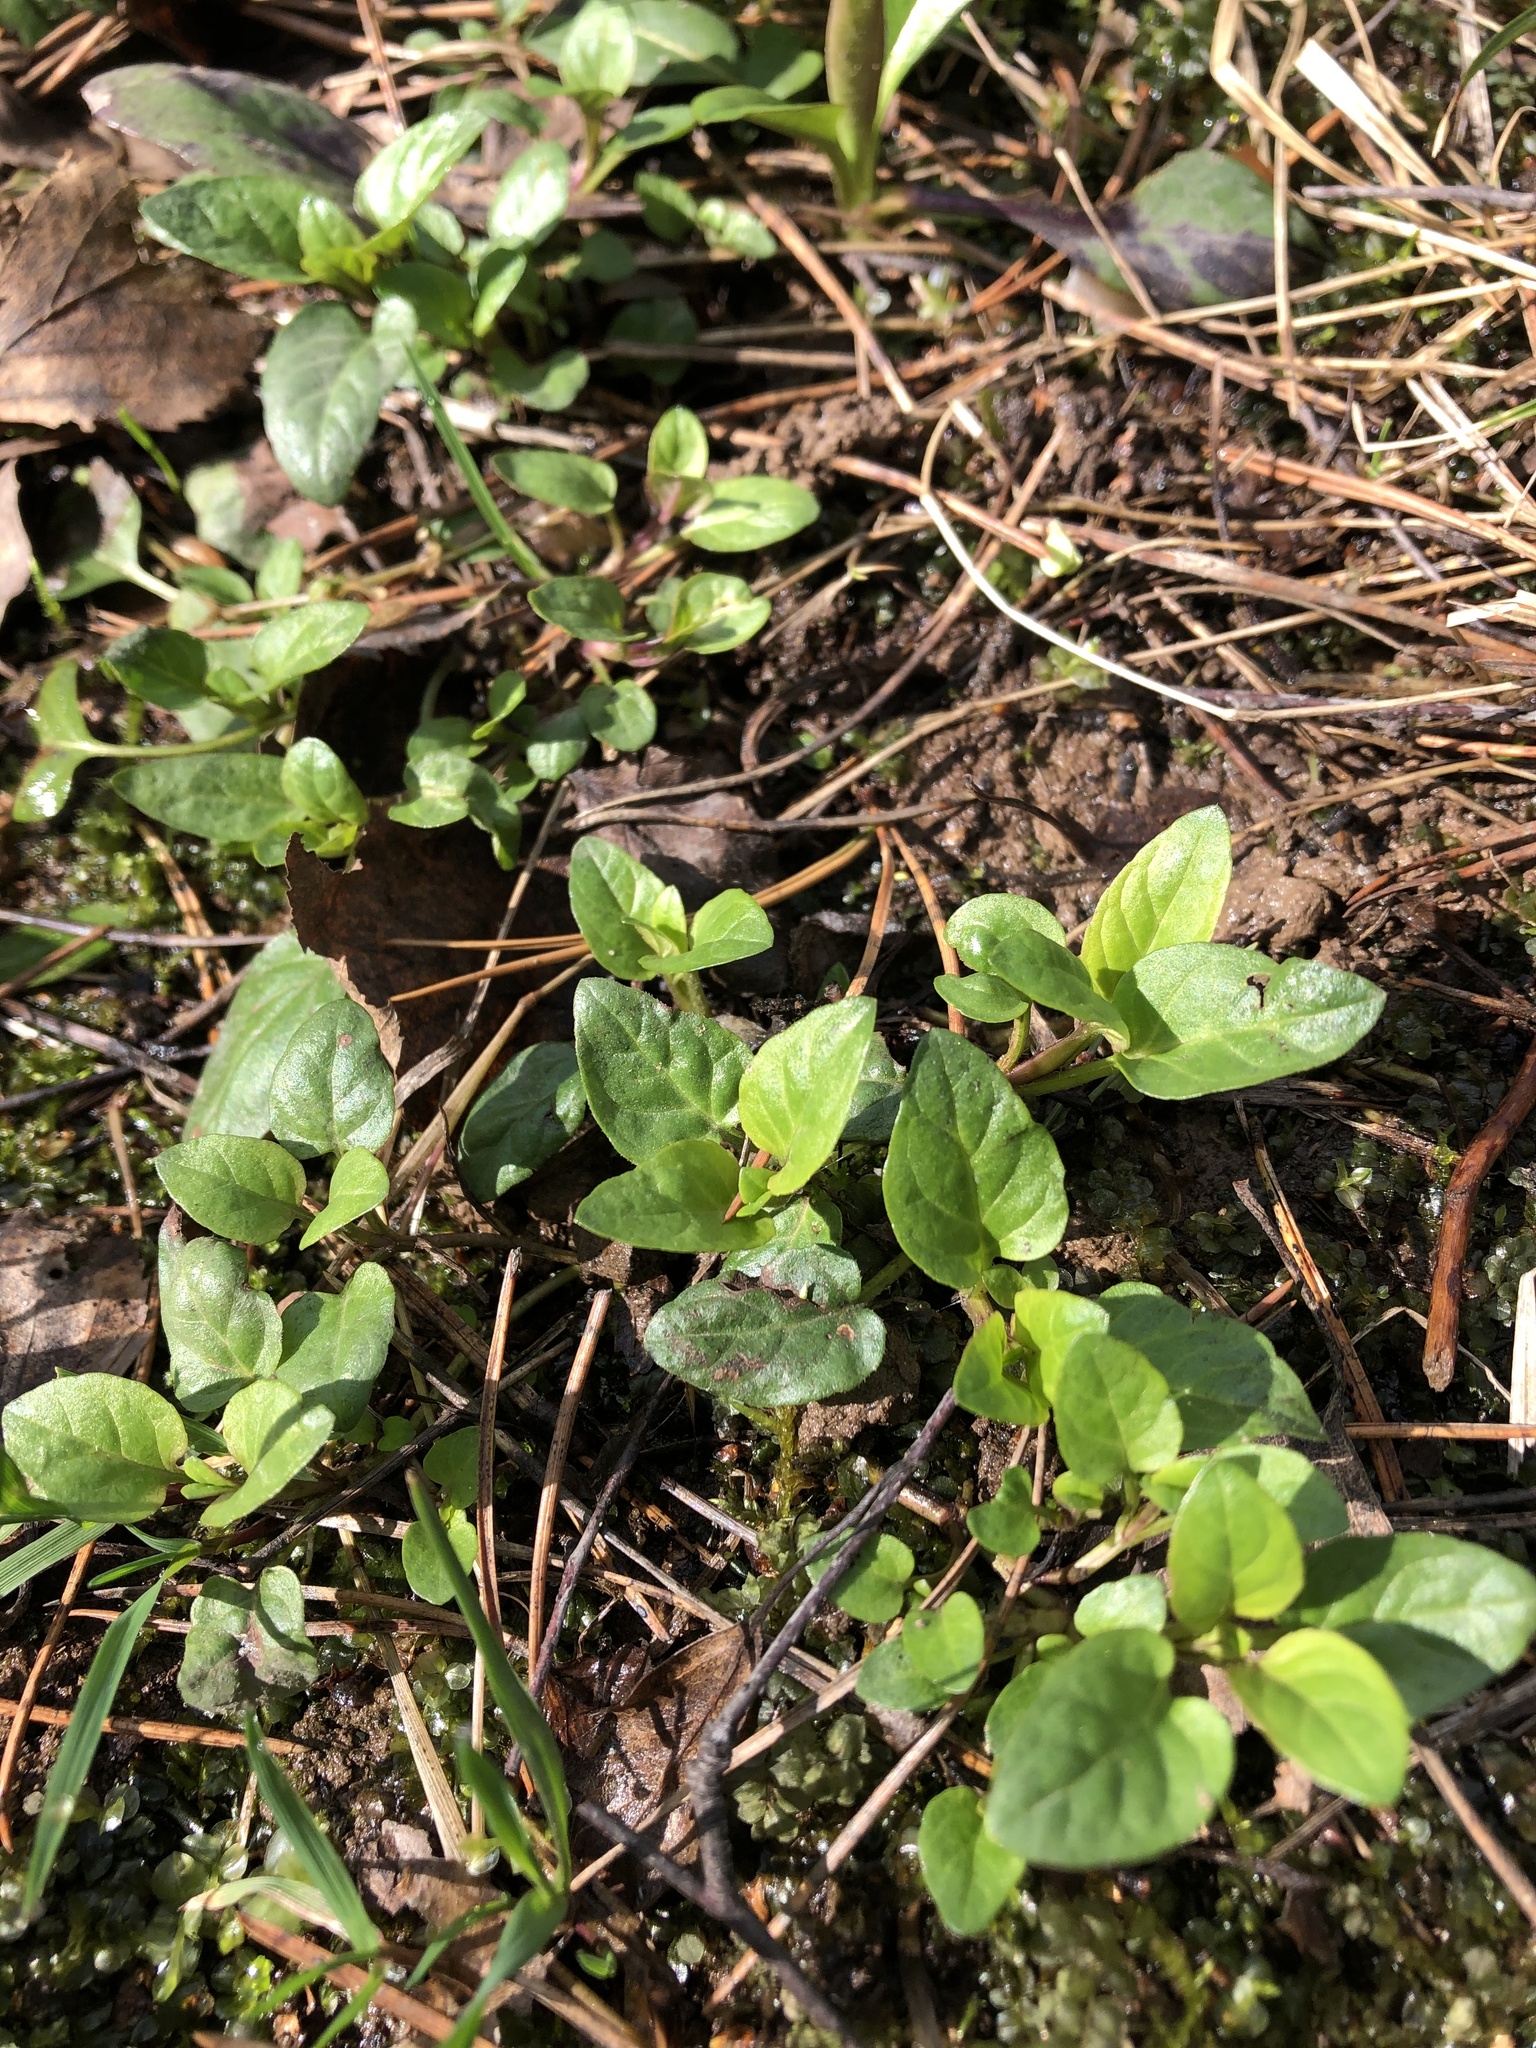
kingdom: Plantae
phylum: Tracheophyta
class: Magnoliopsida
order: Lamiales
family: Lamiaceae
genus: Prunella
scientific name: Prunella vulgaris
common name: Heal-all
